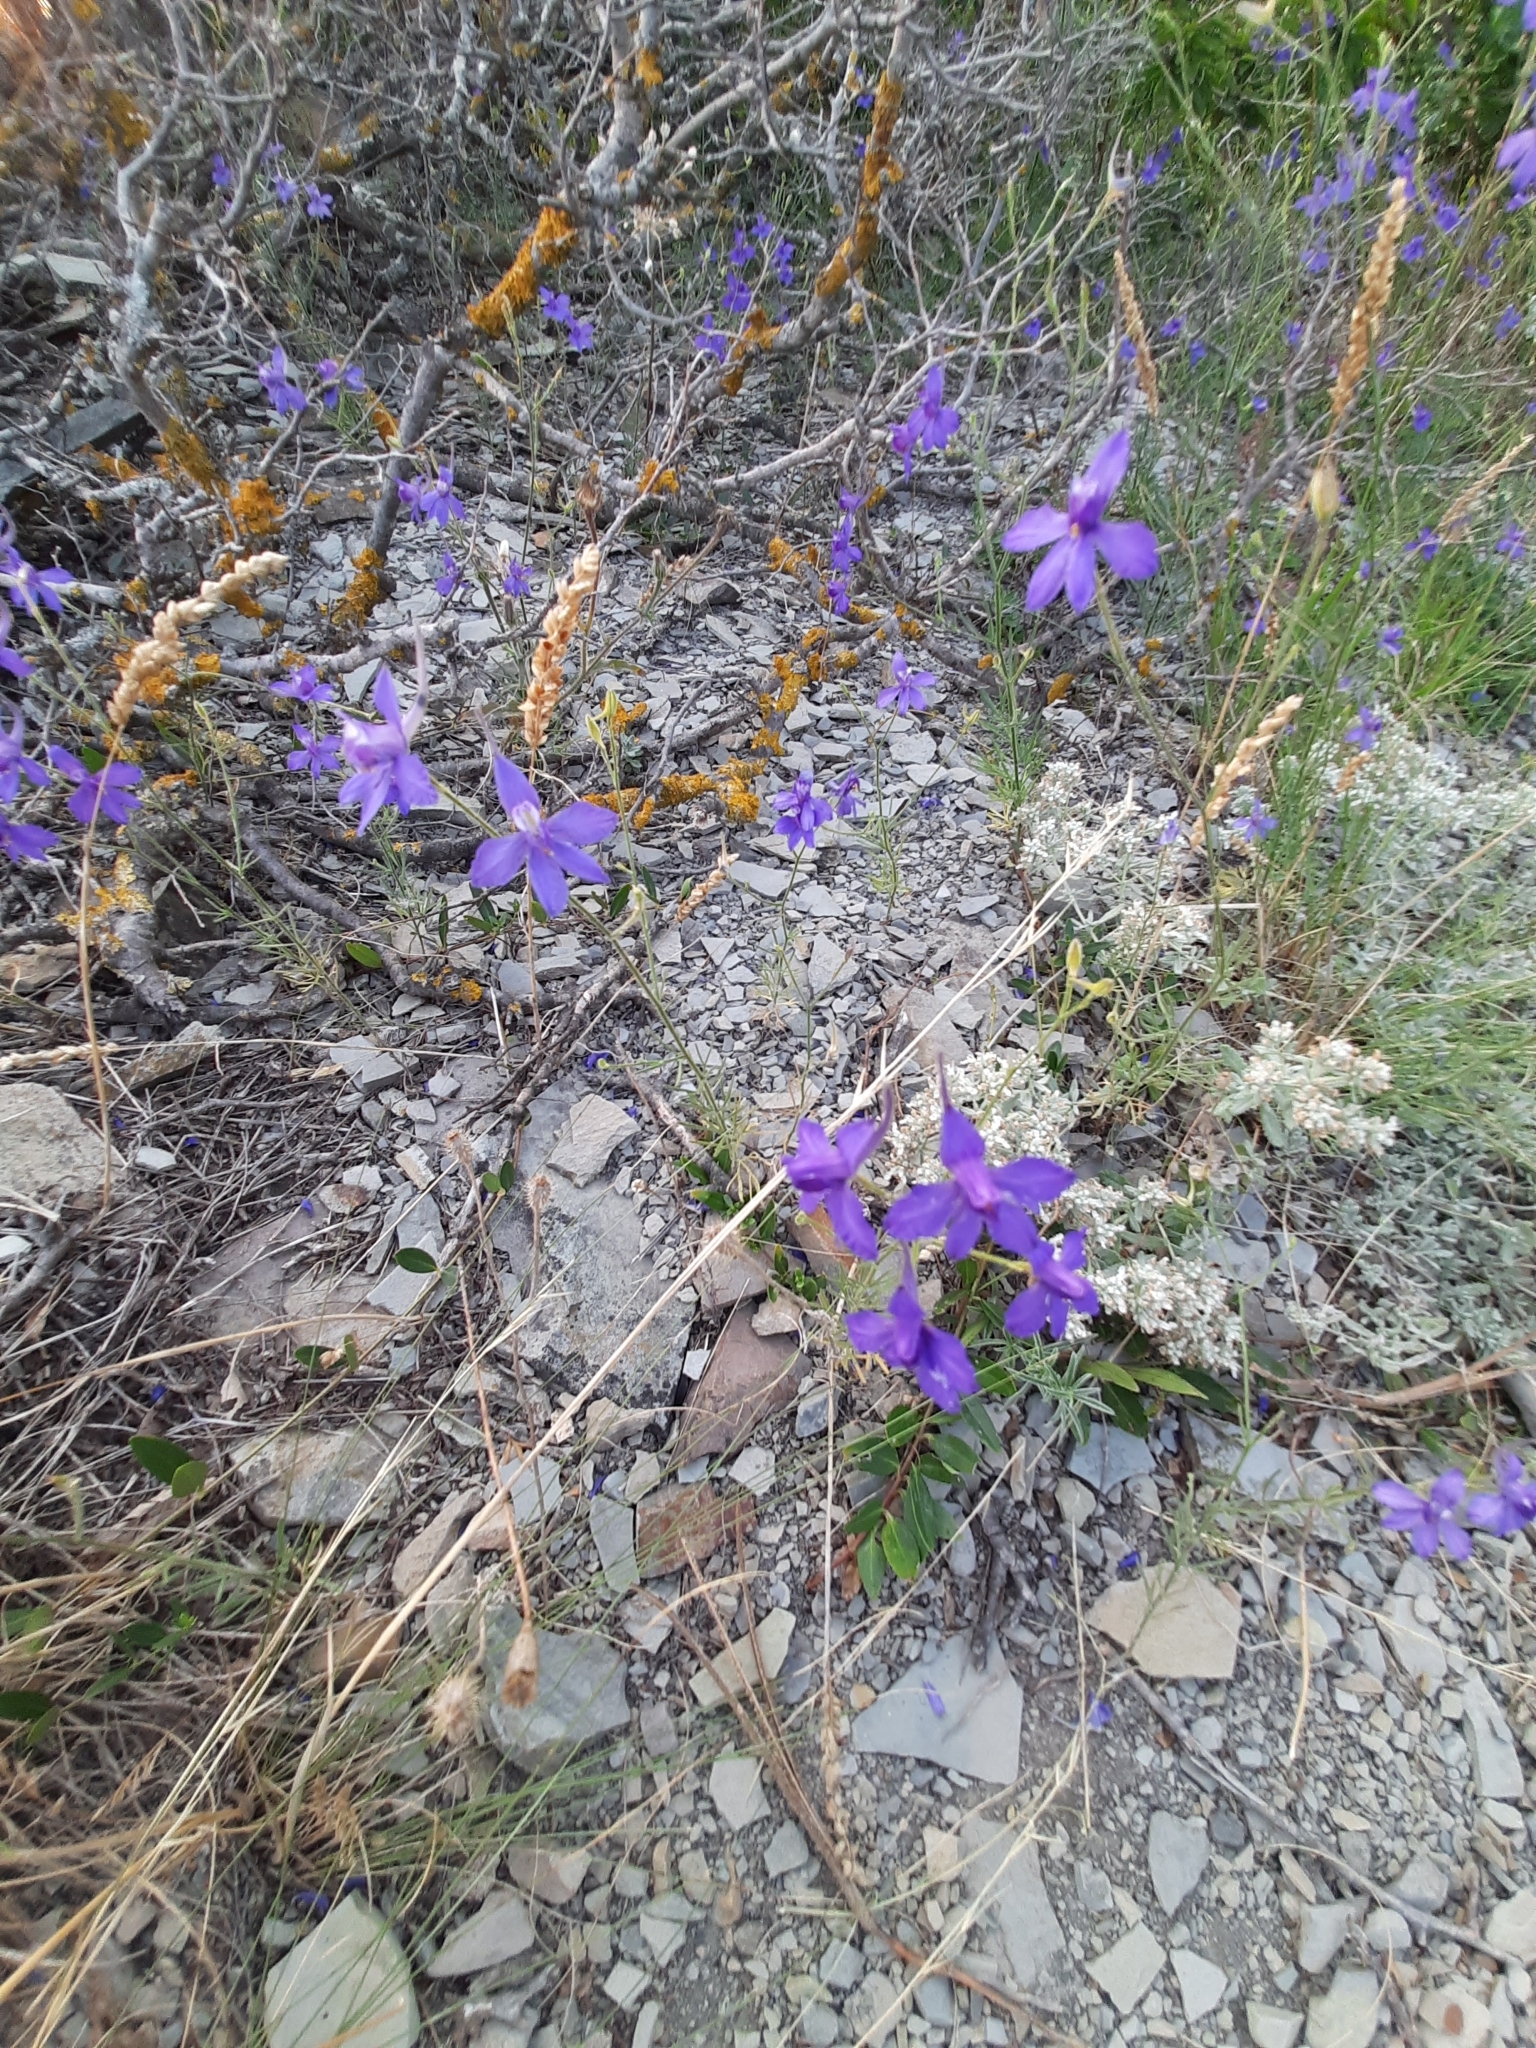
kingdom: Plantae
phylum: Tracheophyta
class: Magnoliopsida
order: Ranunculales
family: Ranunculaceae
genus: Delphinium
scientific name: Delphinium consolida
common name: Branching larkspur
